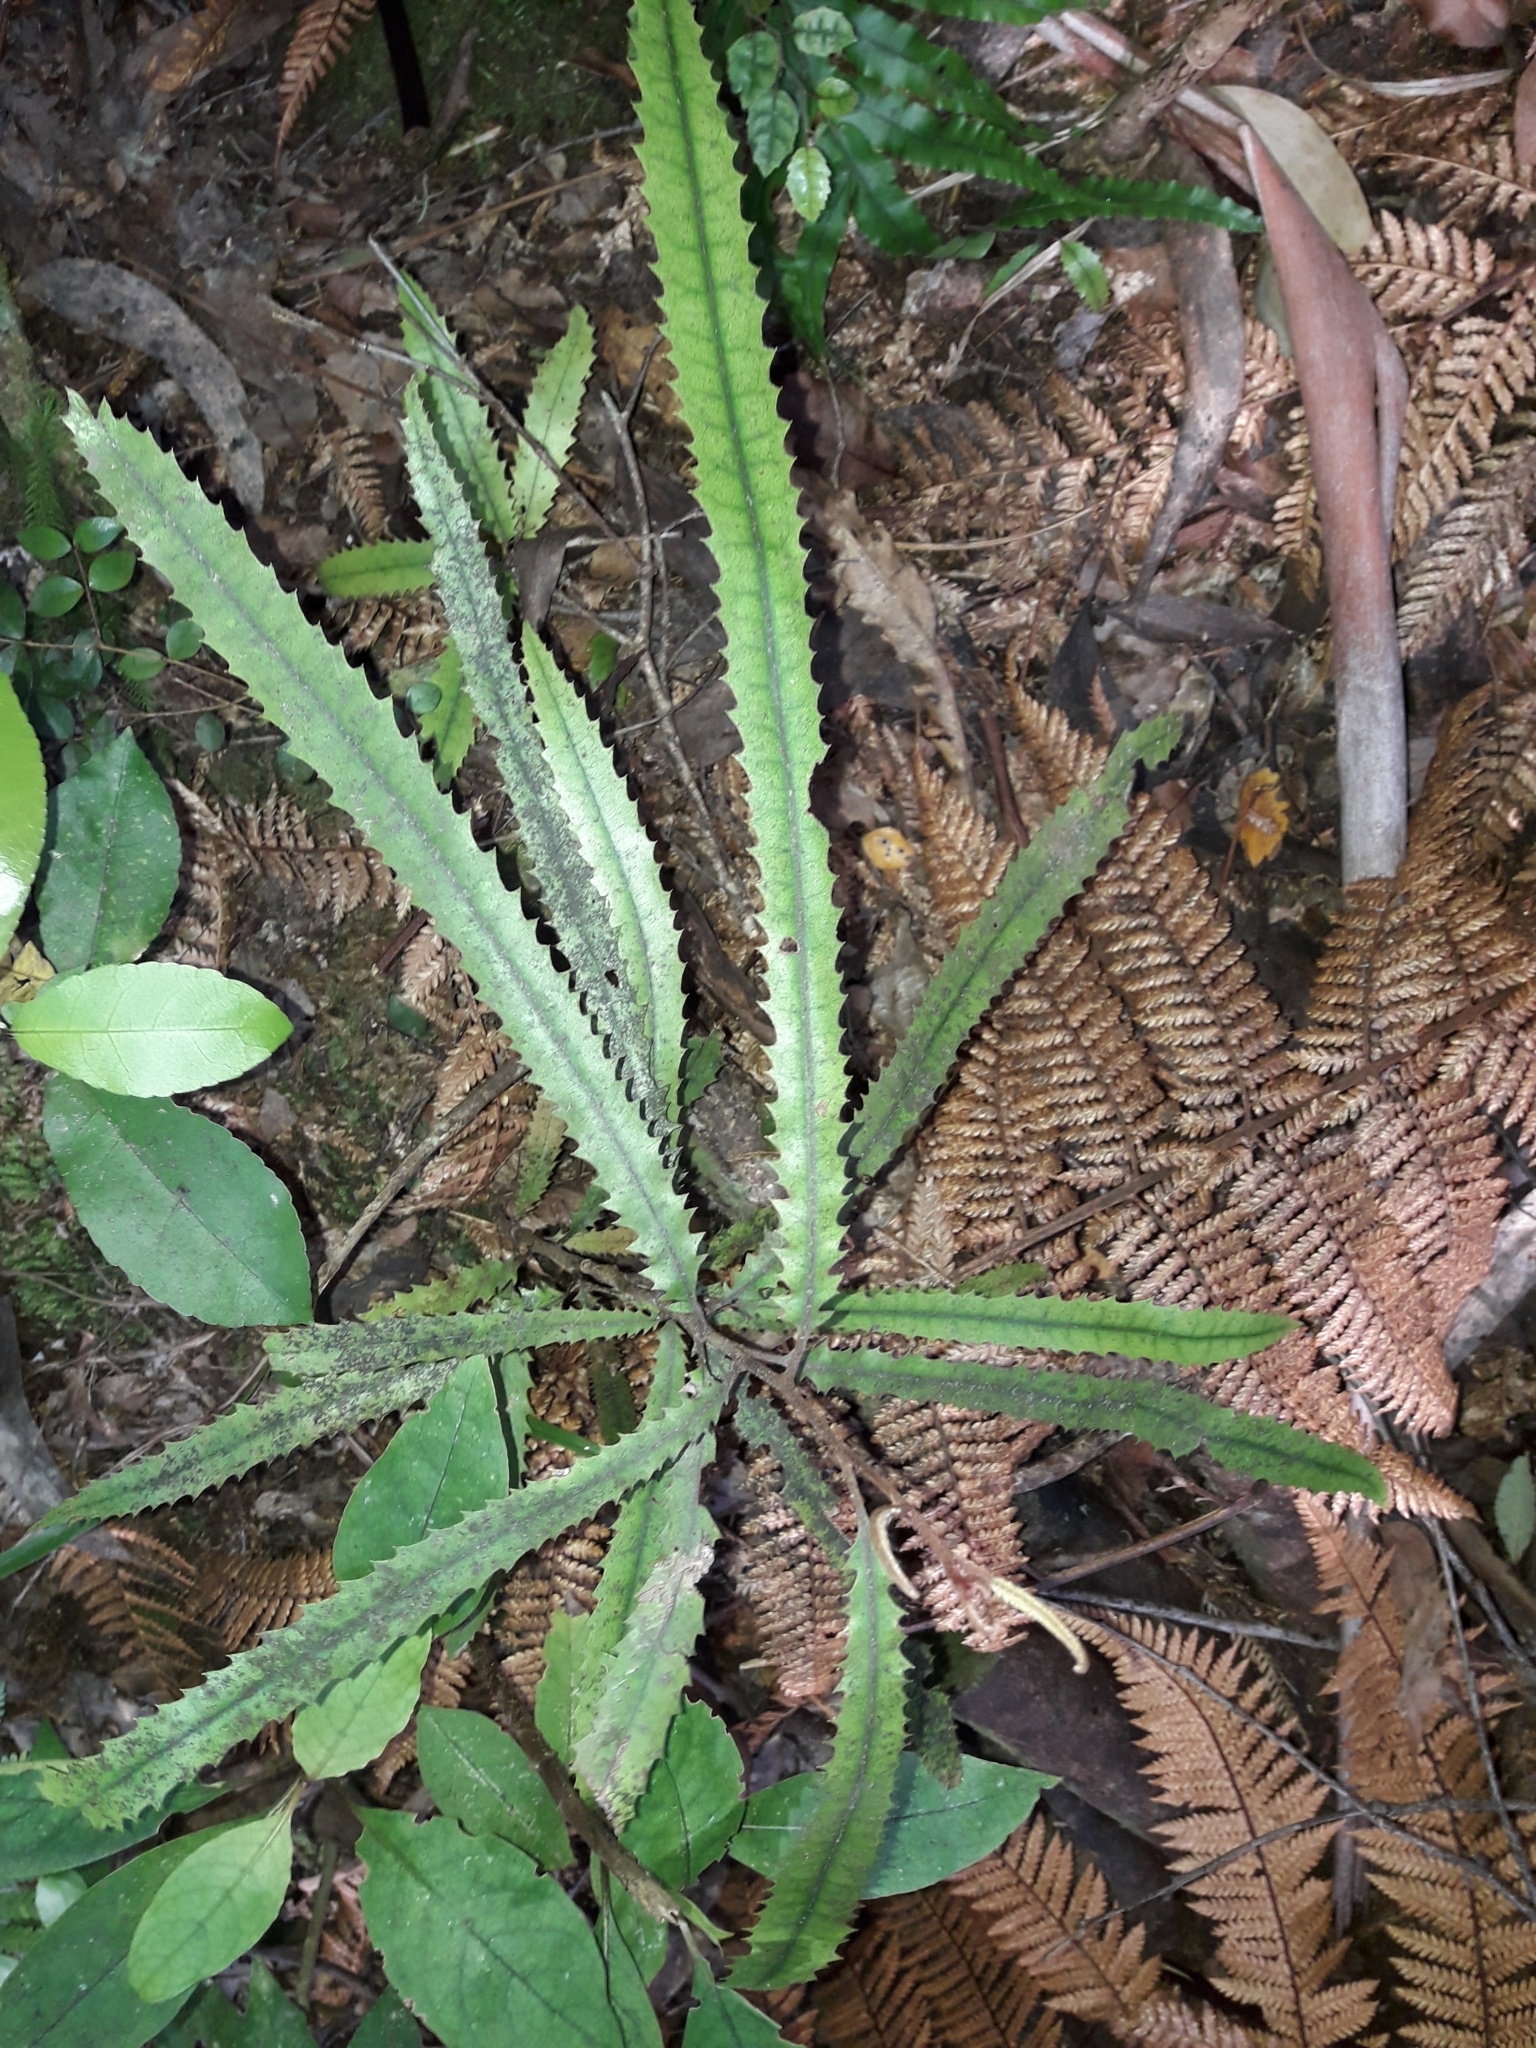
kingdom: Plantae
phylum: Tracheophyta
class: Magnoliopsida
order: Proteales
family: Proteaceae
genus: Knightia
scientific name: Knightia excelsa
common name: New zealand-honeysuckle
